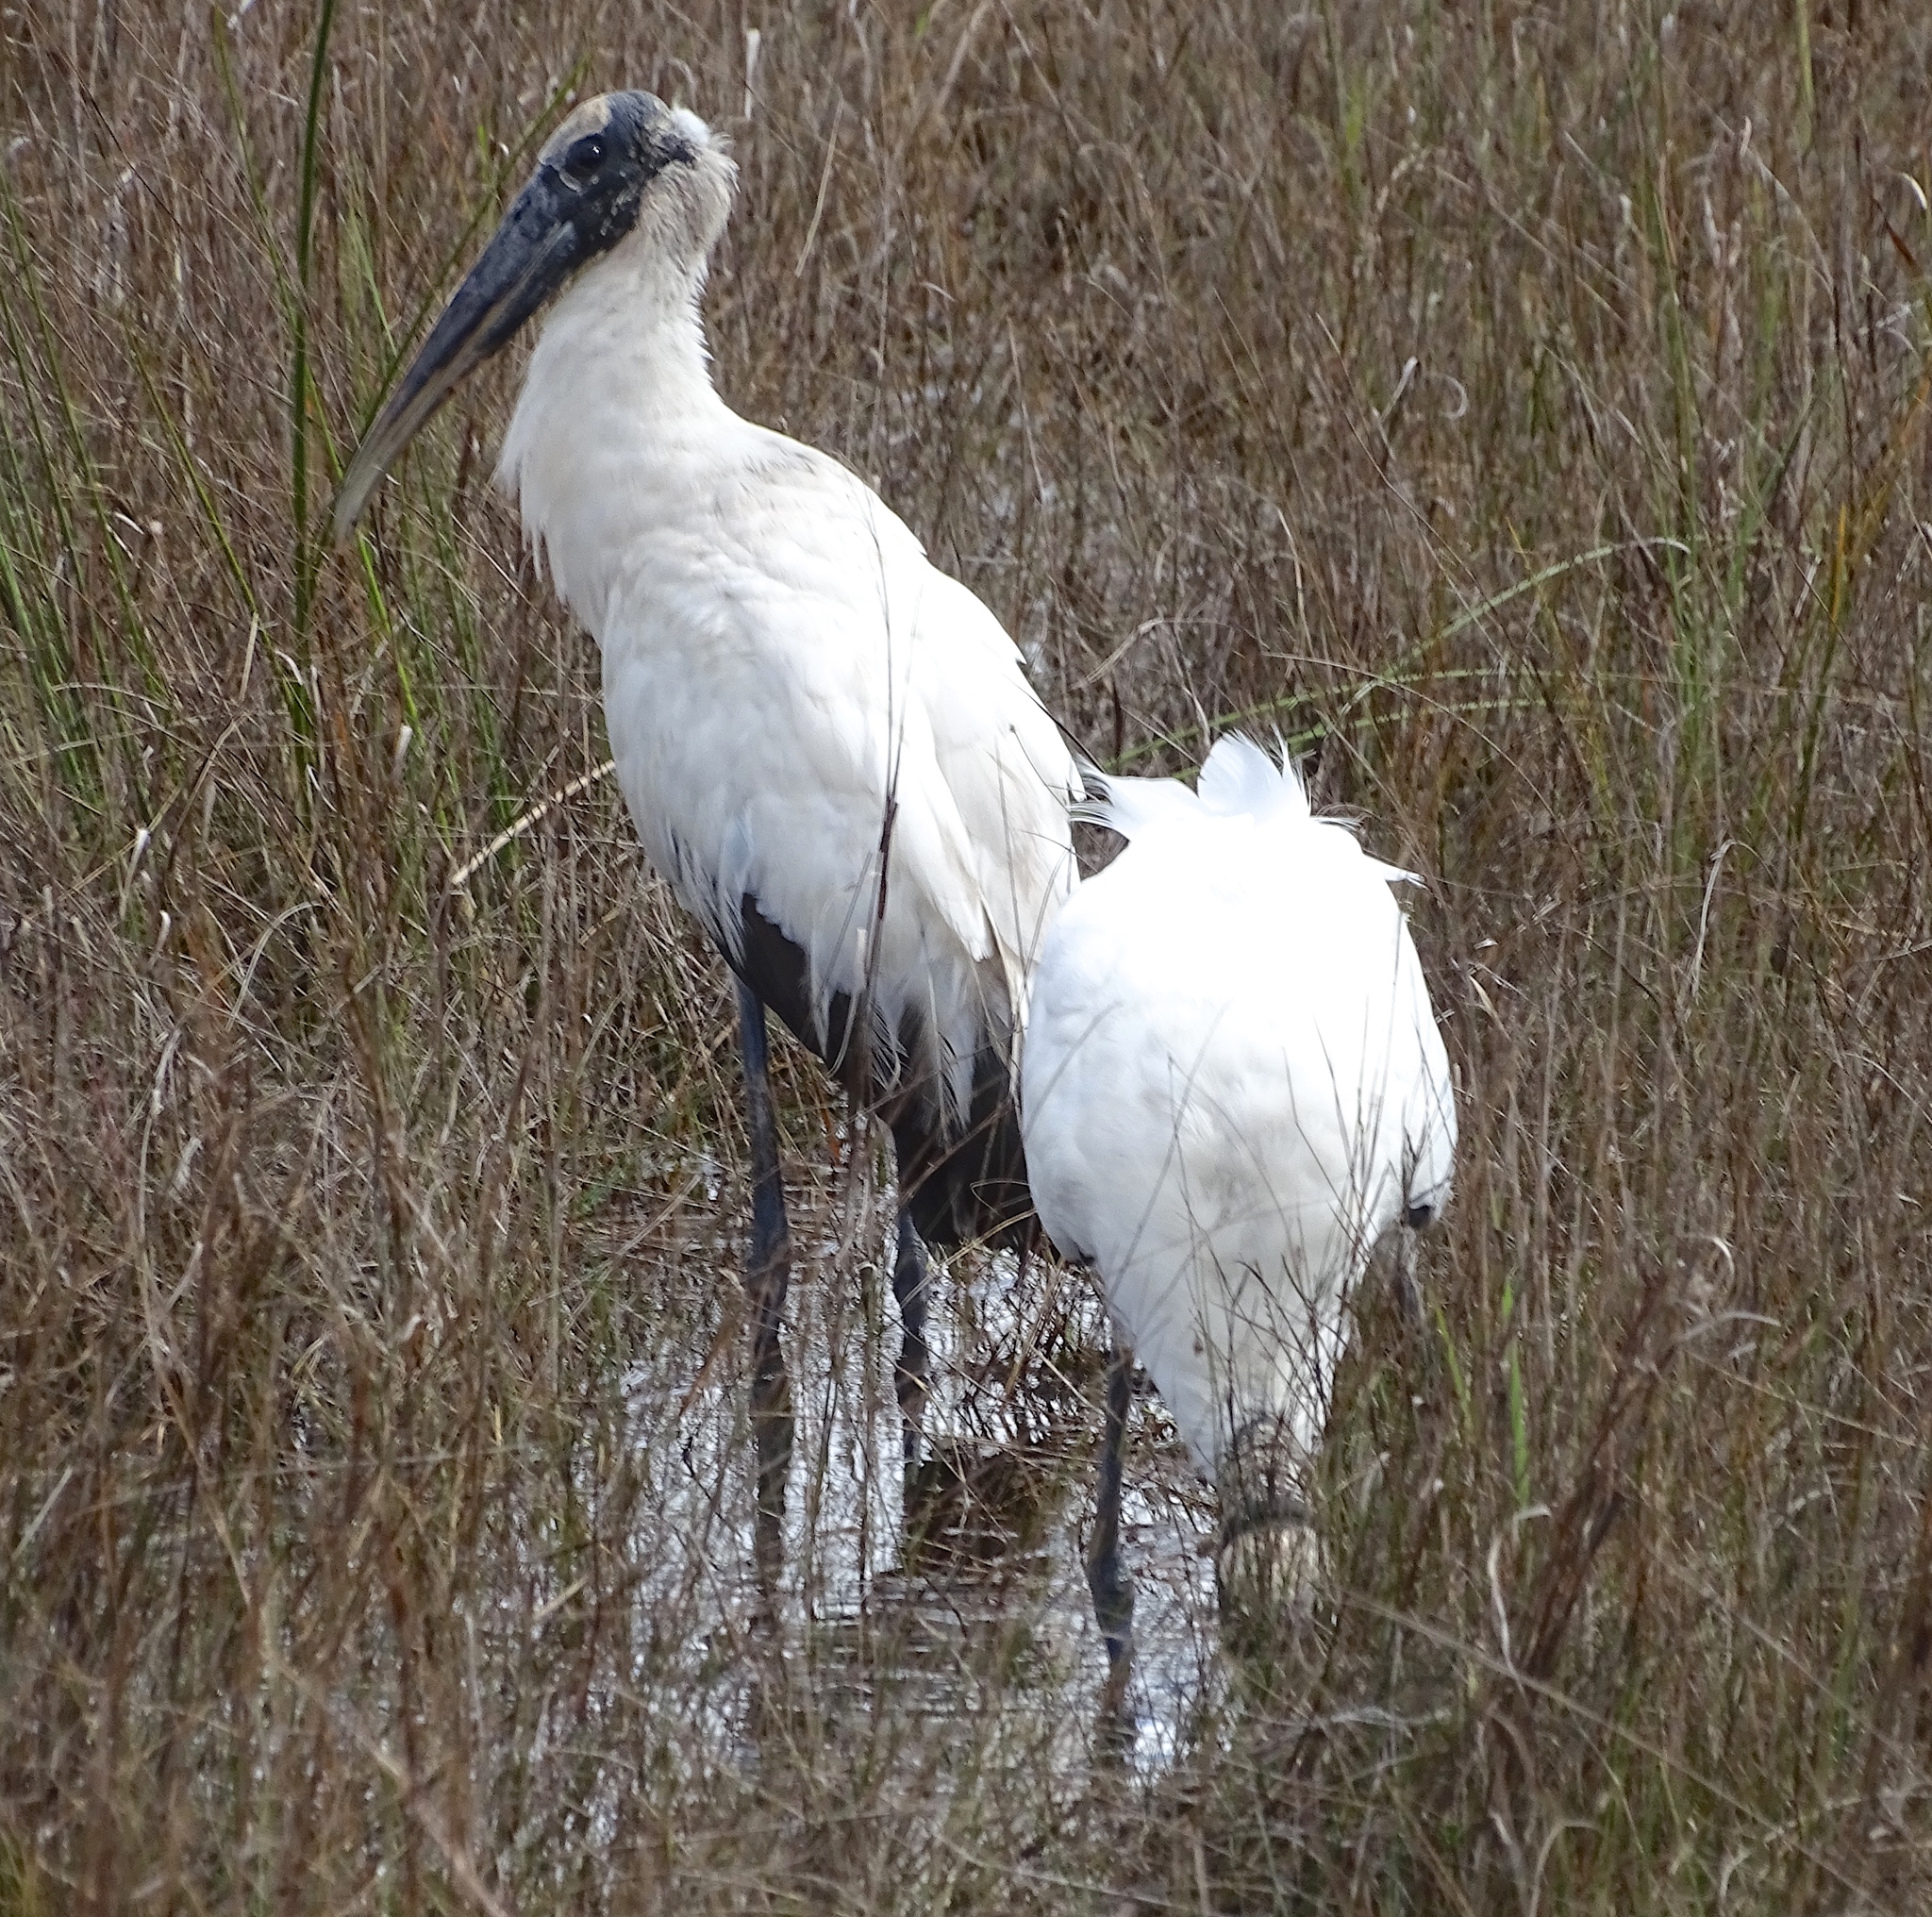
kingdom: Animalia
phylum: Chordata
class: Aves
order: Ciconiiformes
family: Ciconiidae
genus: Mycteria
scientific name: Mycteria americana
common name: Wood stork
